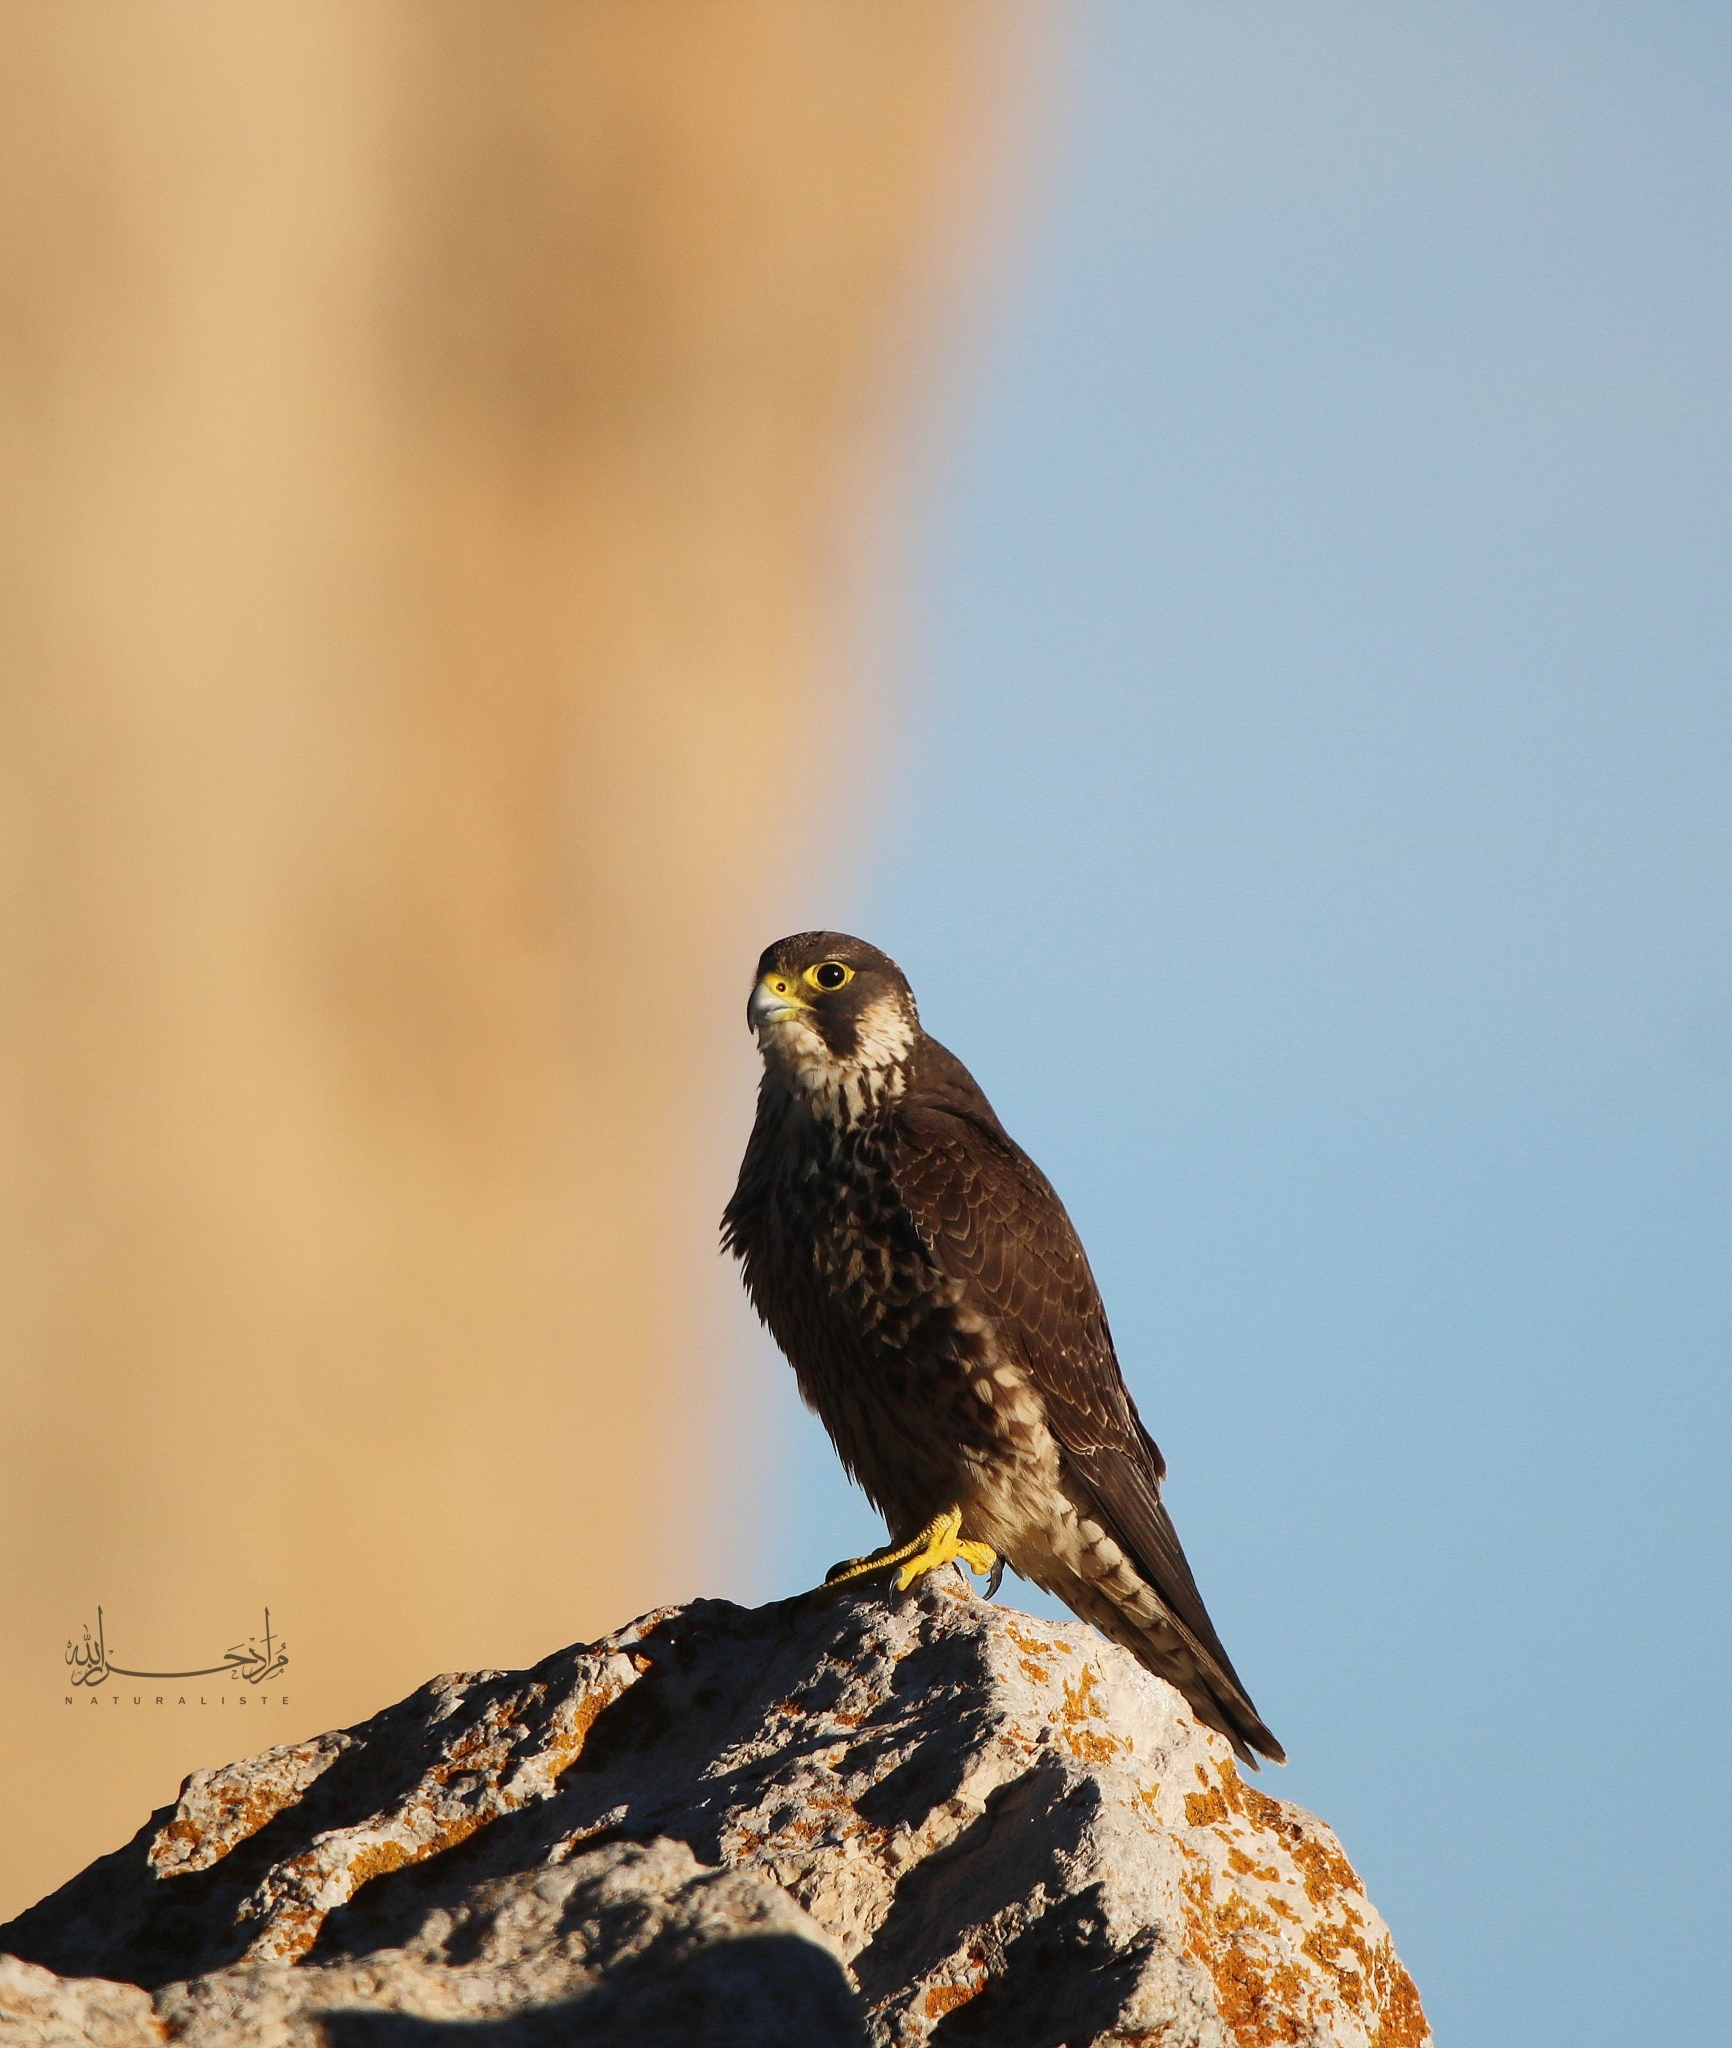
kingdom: Animalia
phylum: Chordata
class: Aves
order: Falconiformes
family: Falconidae
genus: Falco
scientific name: Falco peregrinus
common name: Peregrine falcon
